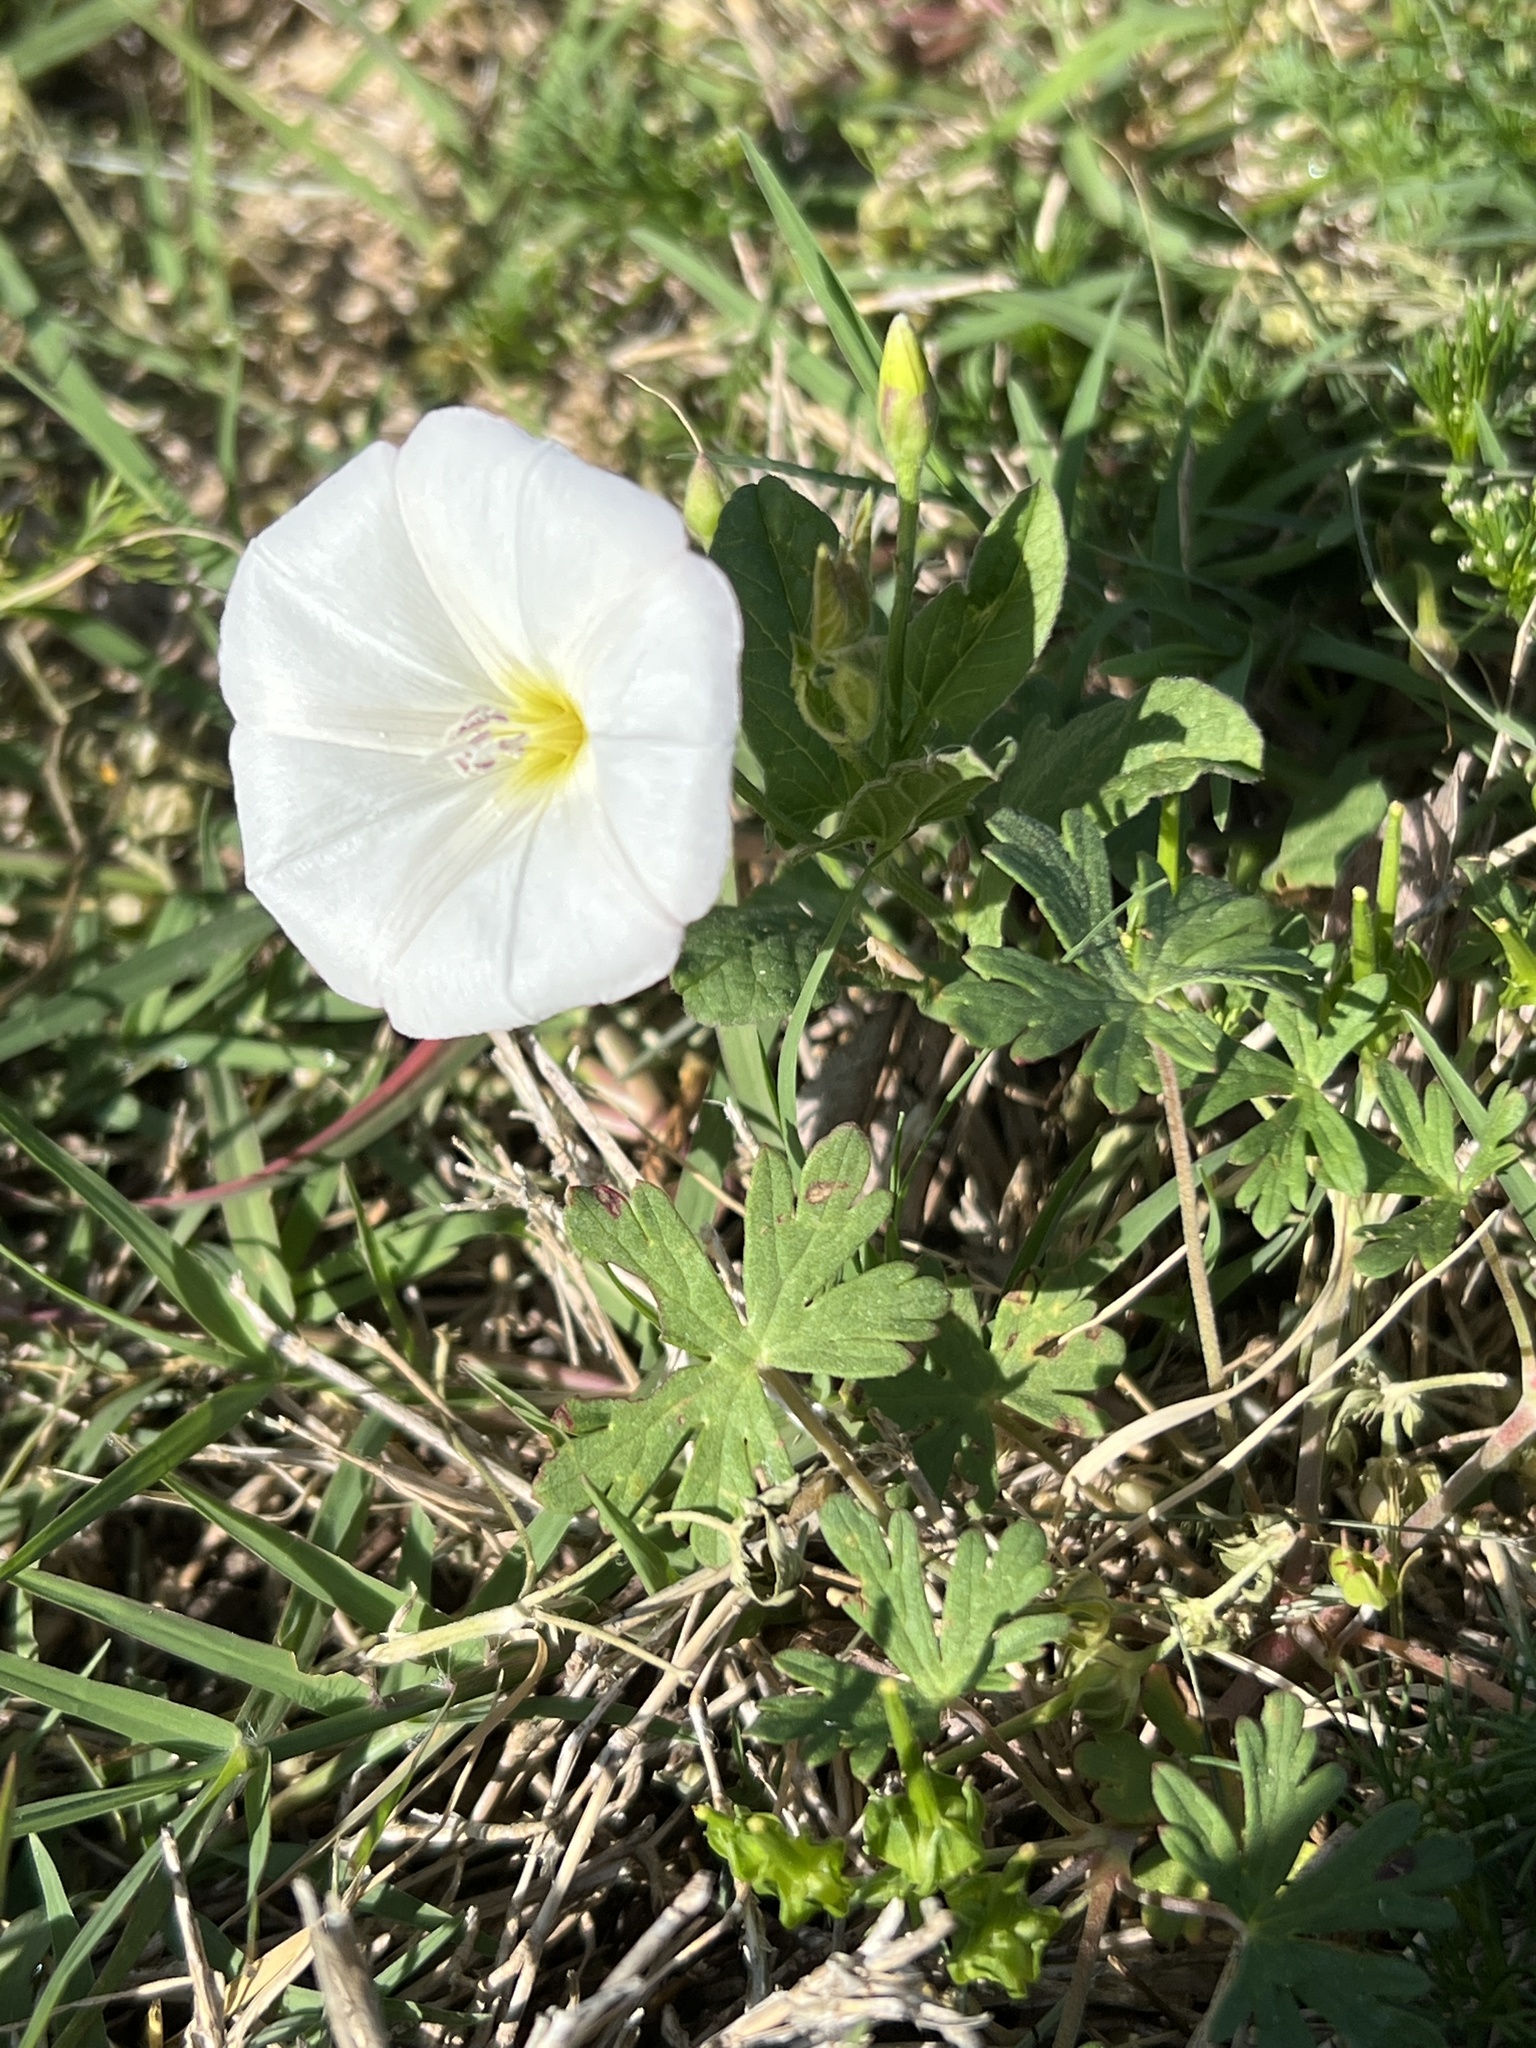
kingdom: Plantae
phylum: Tracheophyta
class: Magnoliopsida
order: Solanales
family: Convolvulaceae
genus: Convolvulus
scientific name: Convolvulus arvensis
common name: Field bindweed
